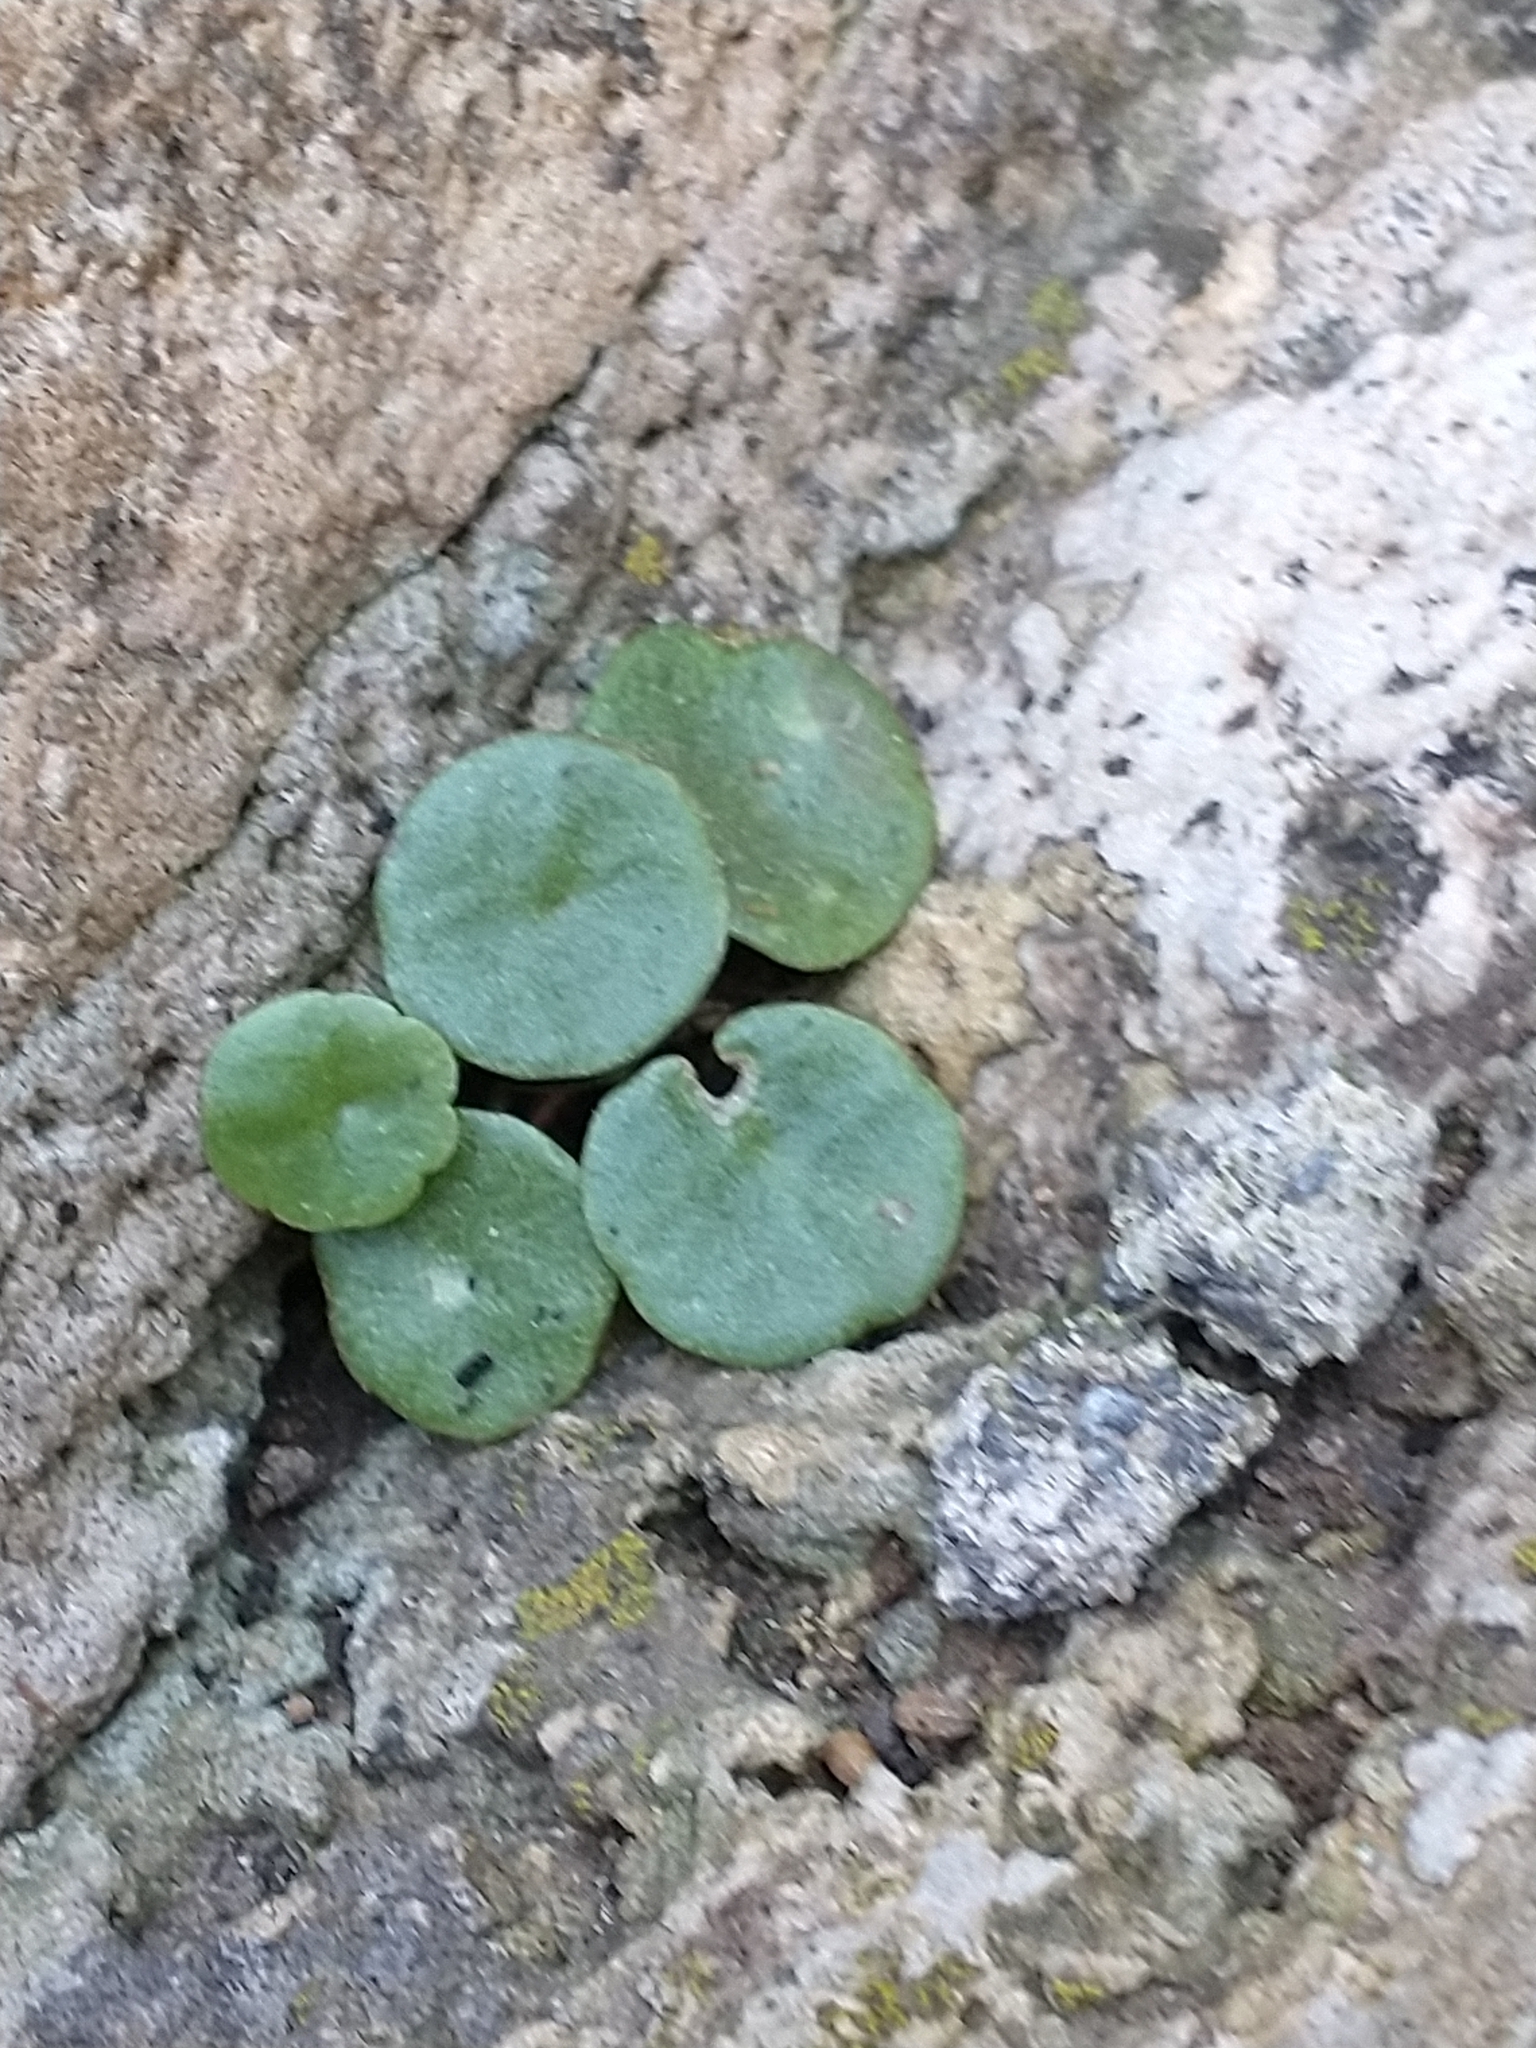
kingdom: Plantae
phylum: Tracheophyta
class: Magnoliopsida
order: Saxifragales
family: Crassulaceae
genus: Umbilicus
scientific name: Umbilicus rupestris
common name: Navelwort
